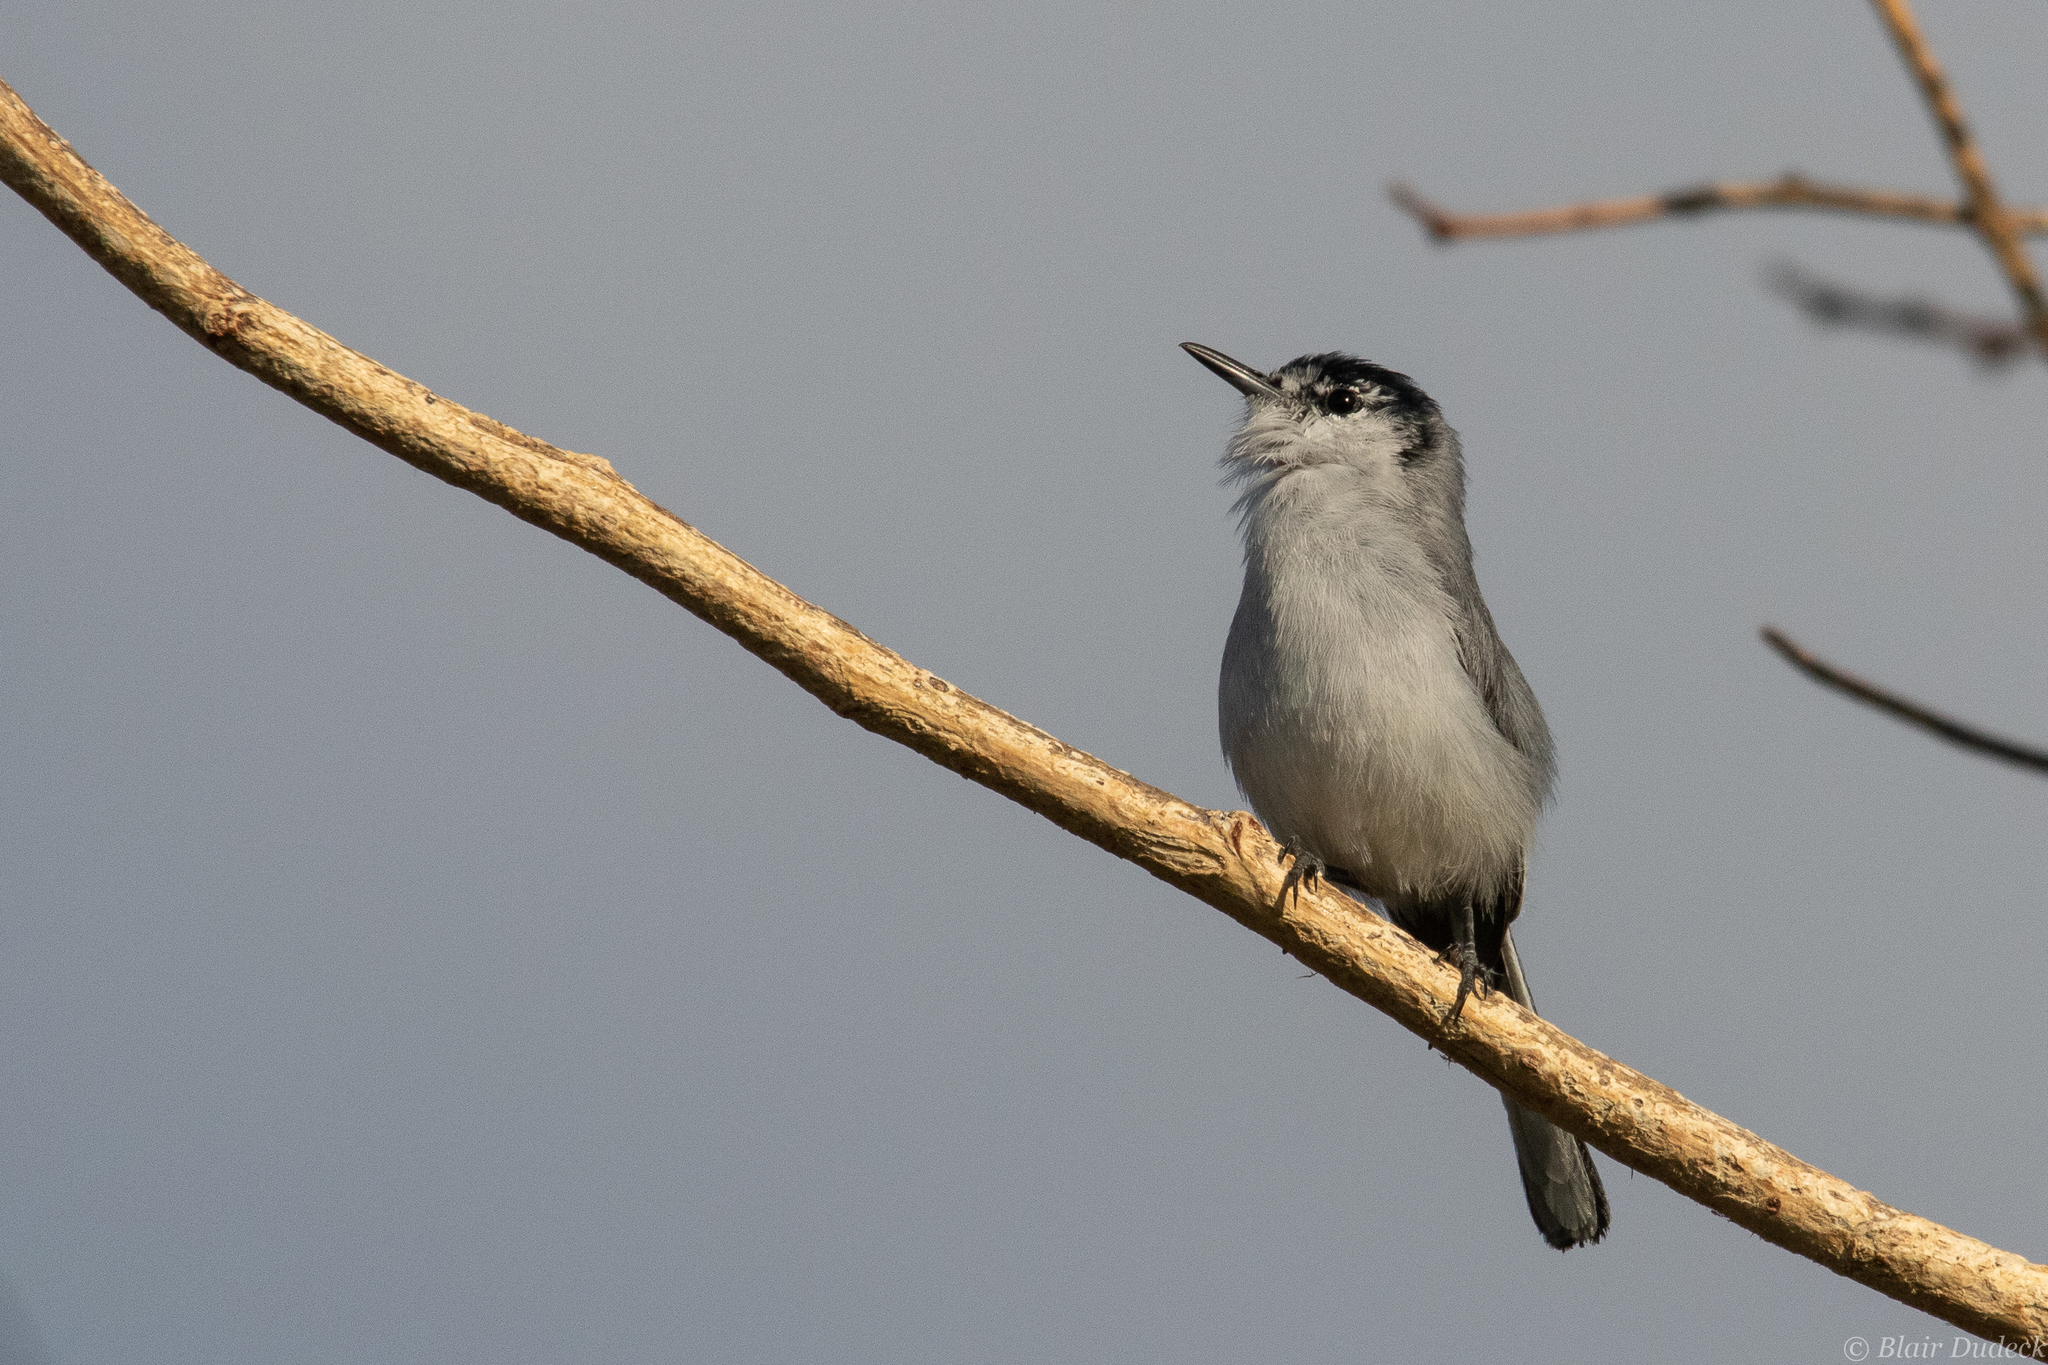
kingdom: Animalia
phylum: Chordata
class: Aves
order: Passeriformes
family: Polioptilidae
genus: Polioptila
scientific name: Polioptila albiloris
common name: White-lored gnatcatcher
